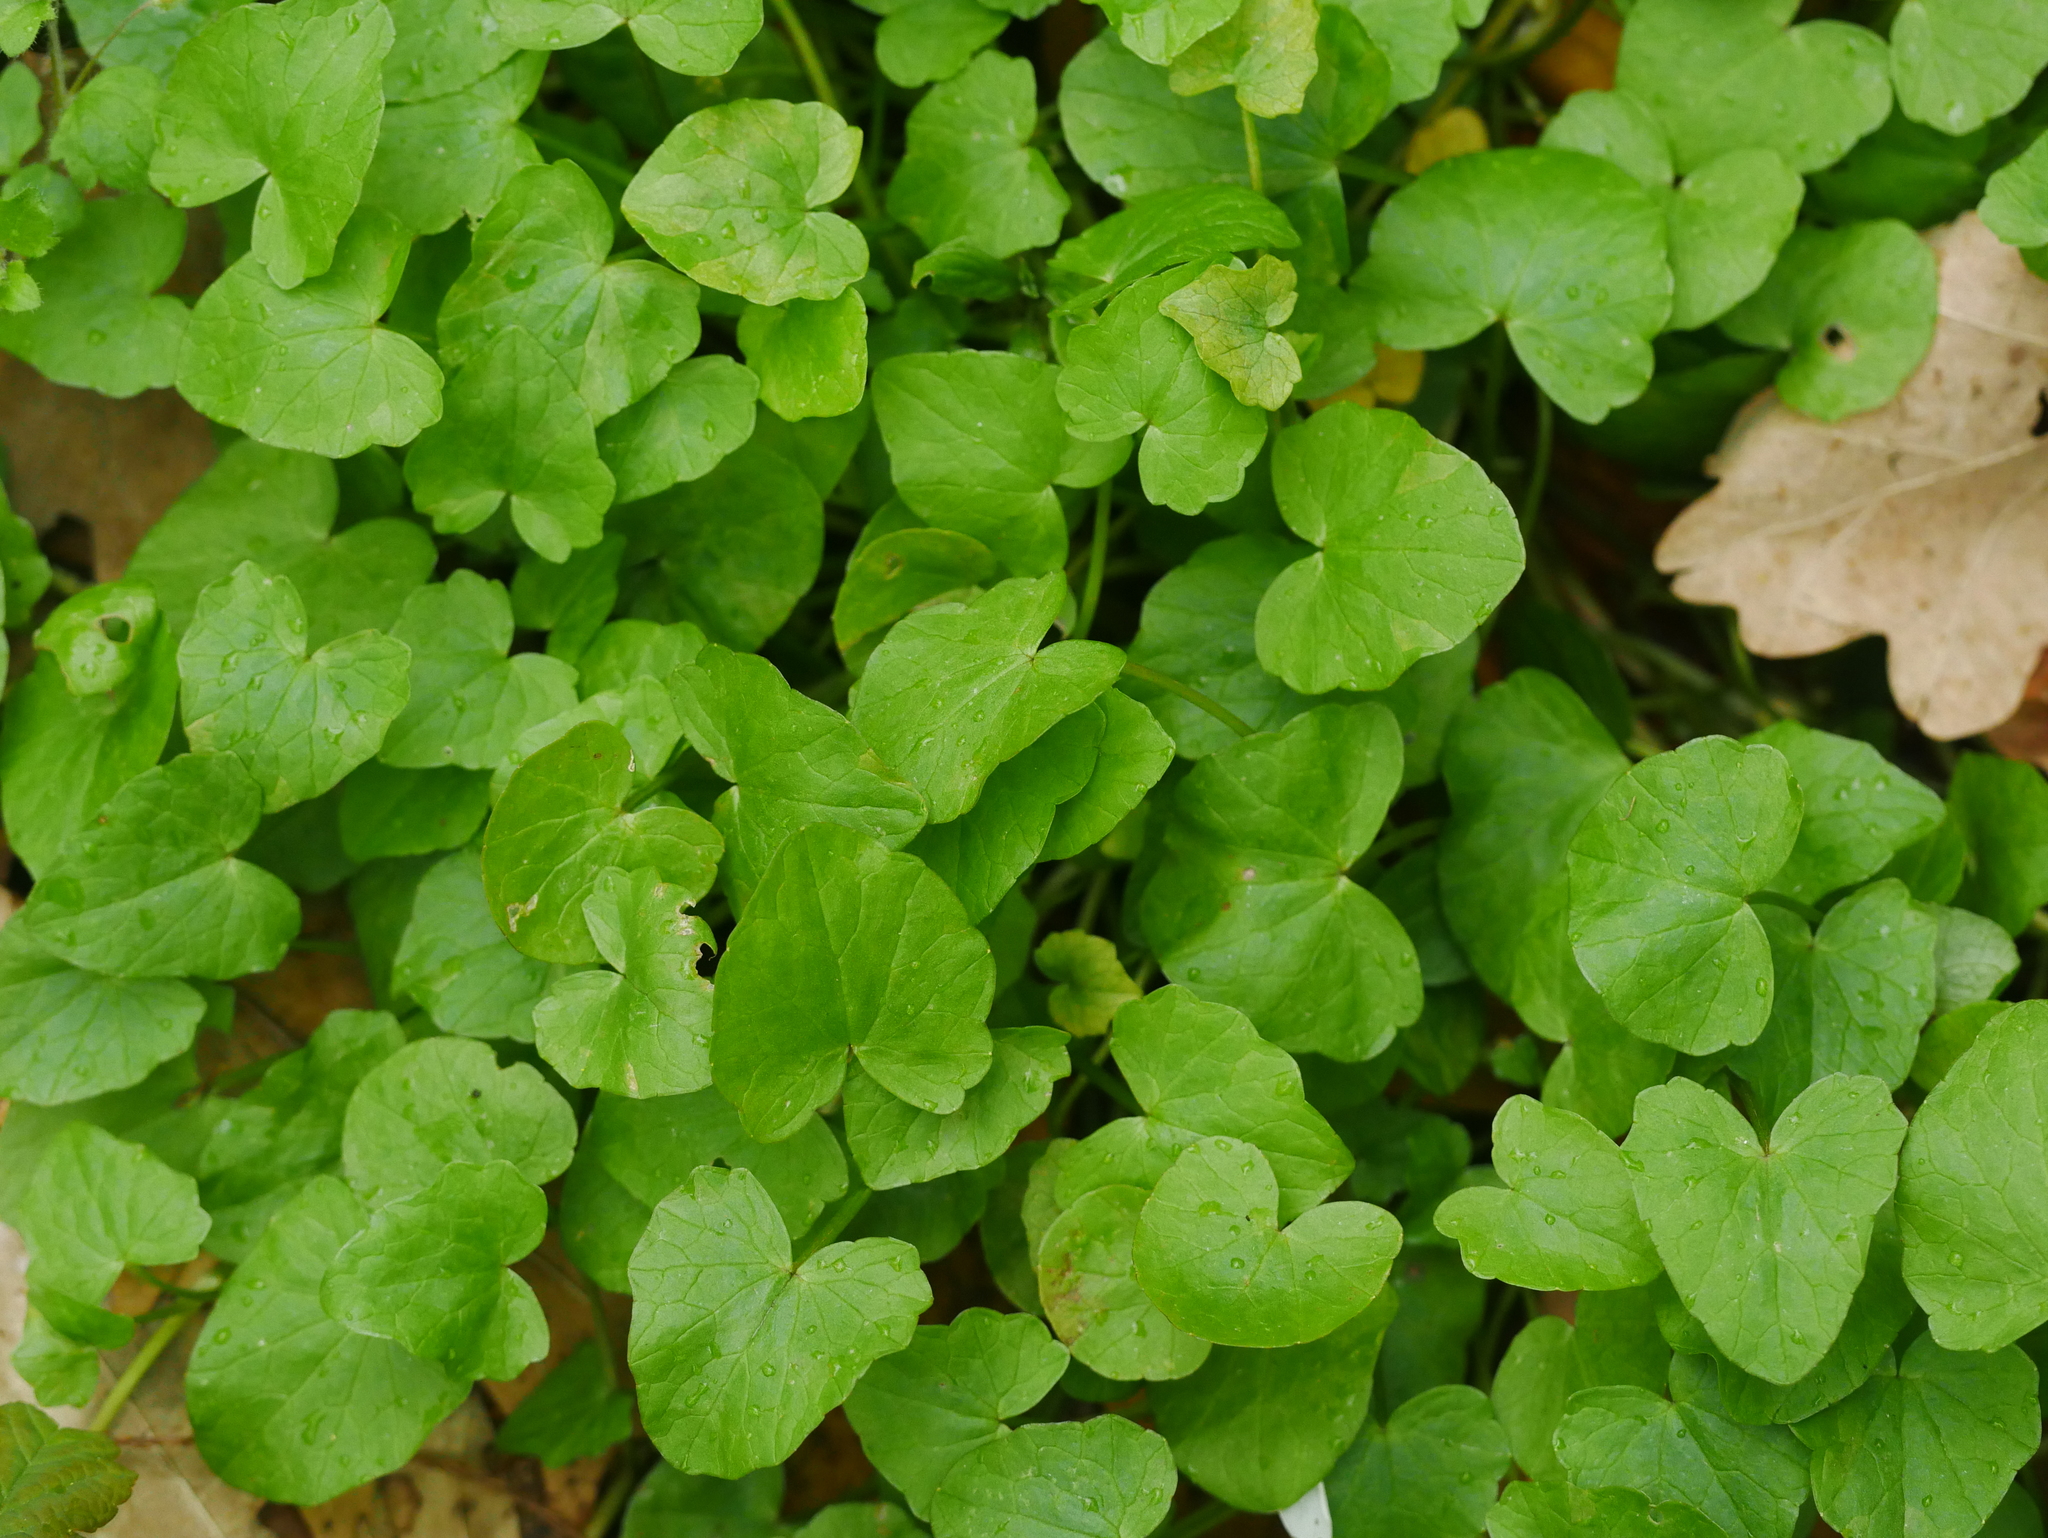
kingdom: Plantae
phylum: Tracheophyta
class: Magnoliopsida
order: Ranunculales
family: Ranunculaceae
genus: Ficaria
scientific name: Ficaria verna
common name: Lesser celandine
